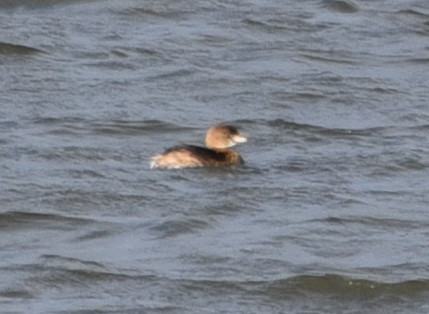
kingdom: Animalia
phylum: Chordata
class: Aves
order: Podicipediformes
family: Podicipedidae
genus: Podilymbus
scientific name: Podilymbus podiceps
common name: Pied-billed grebe
